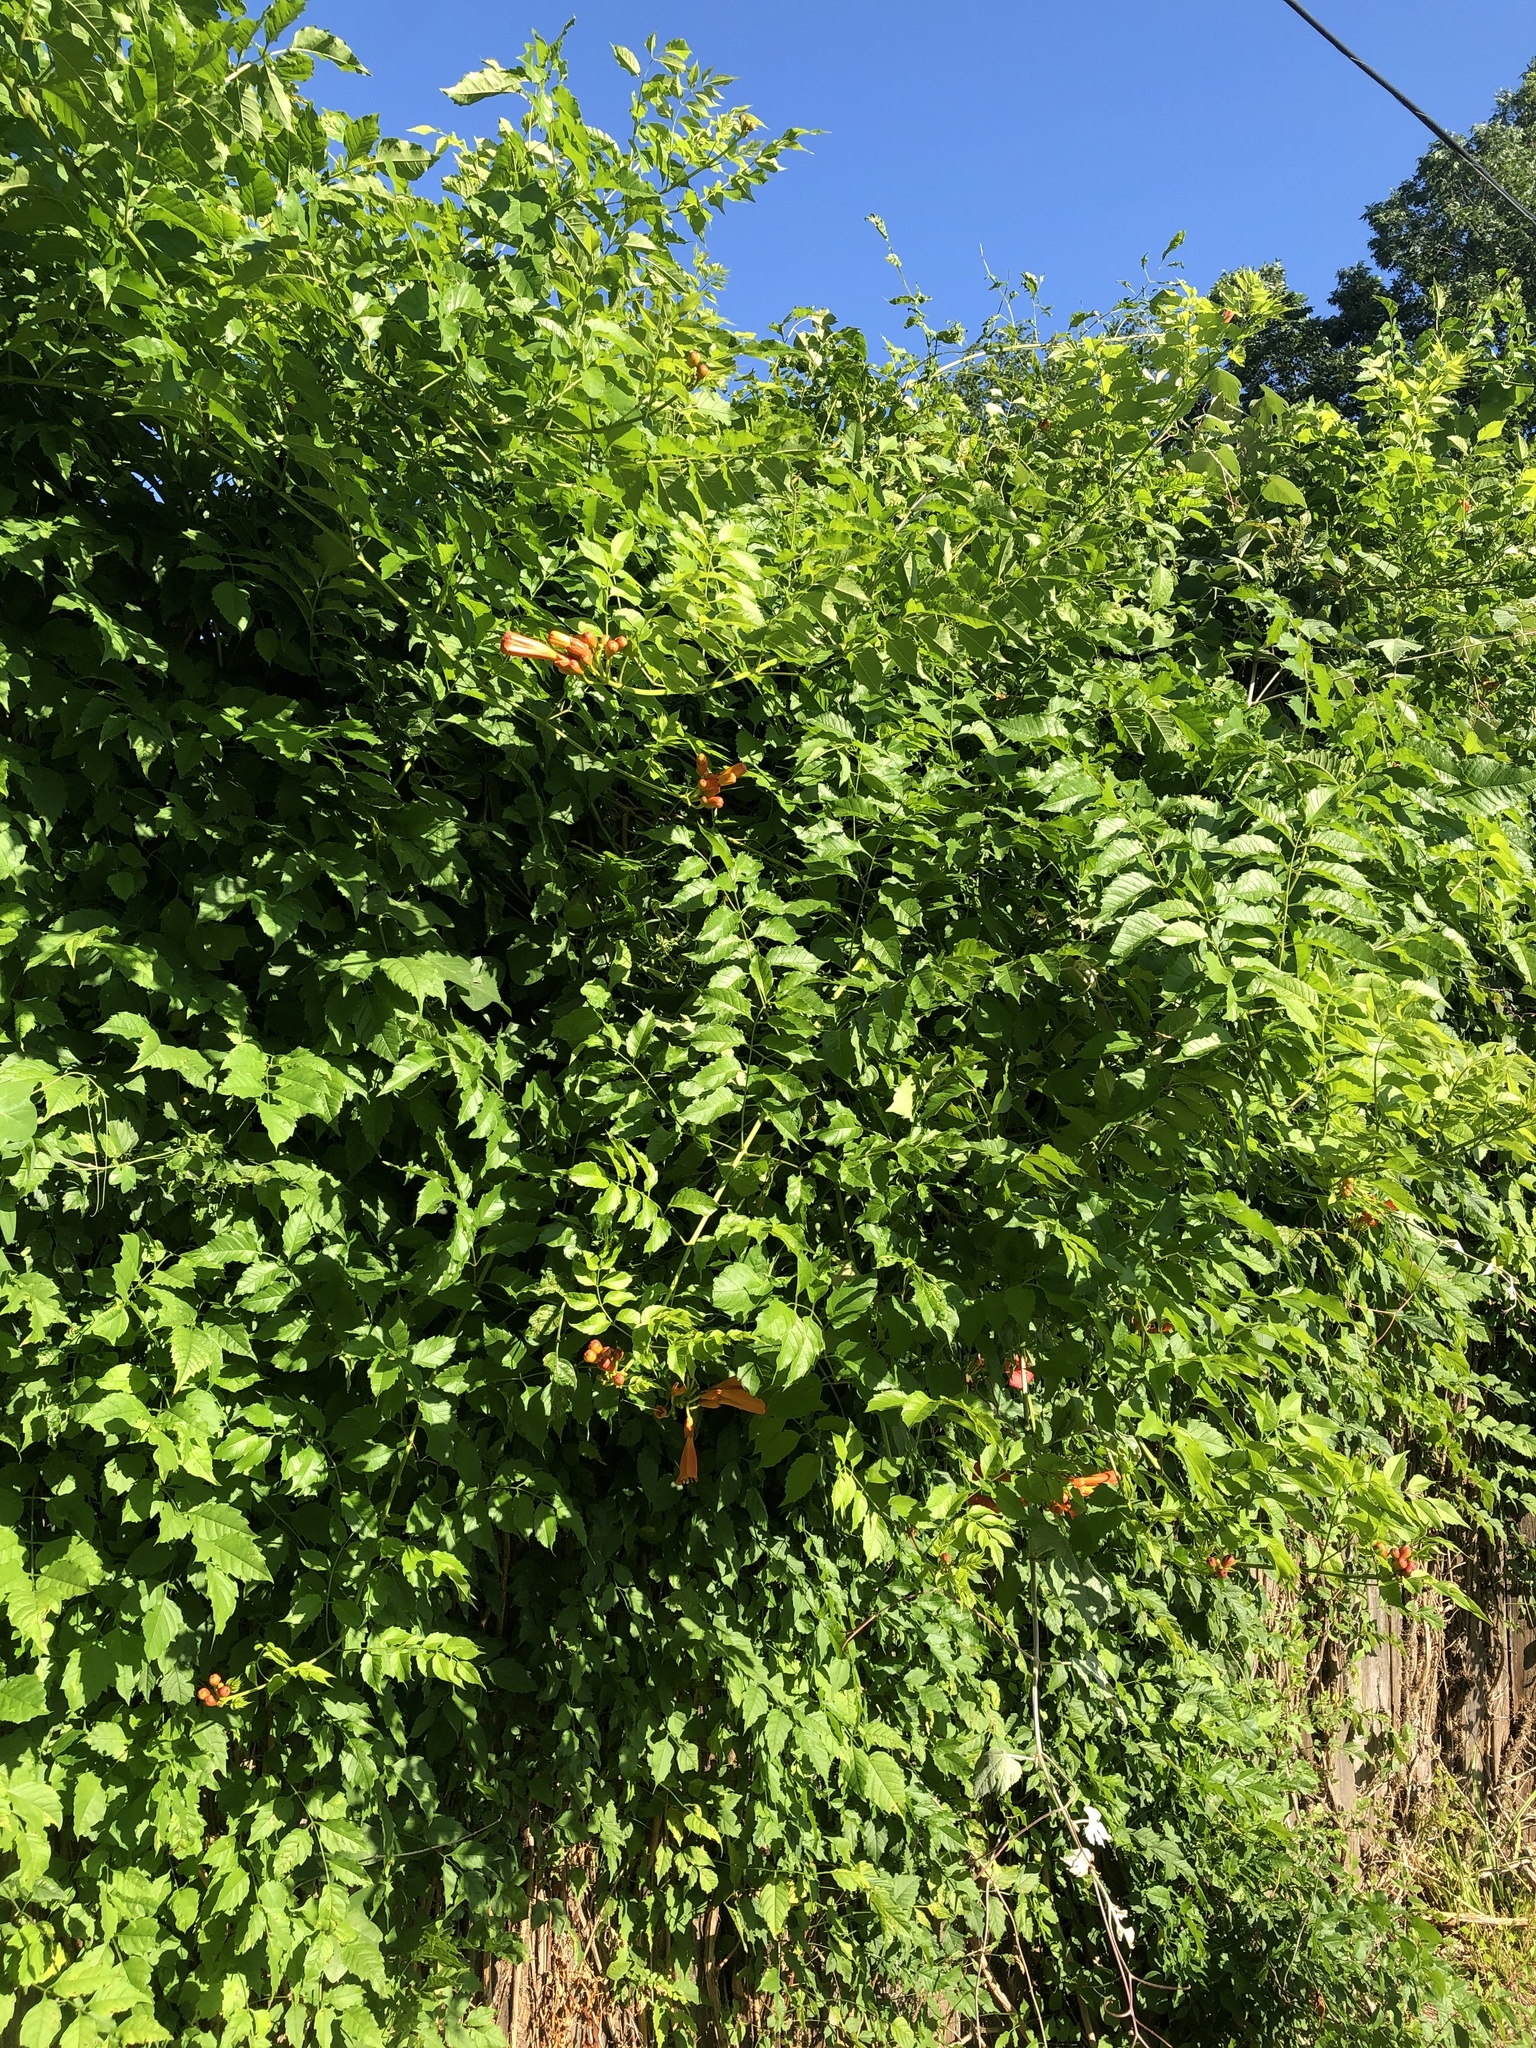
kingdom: Plantae
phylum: Tracheophyta
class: Magnoliopsida
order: Lamiales
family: Bignoniaceae
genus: Campsis
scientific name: Campsis radicans
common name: Trumpet-creeper
